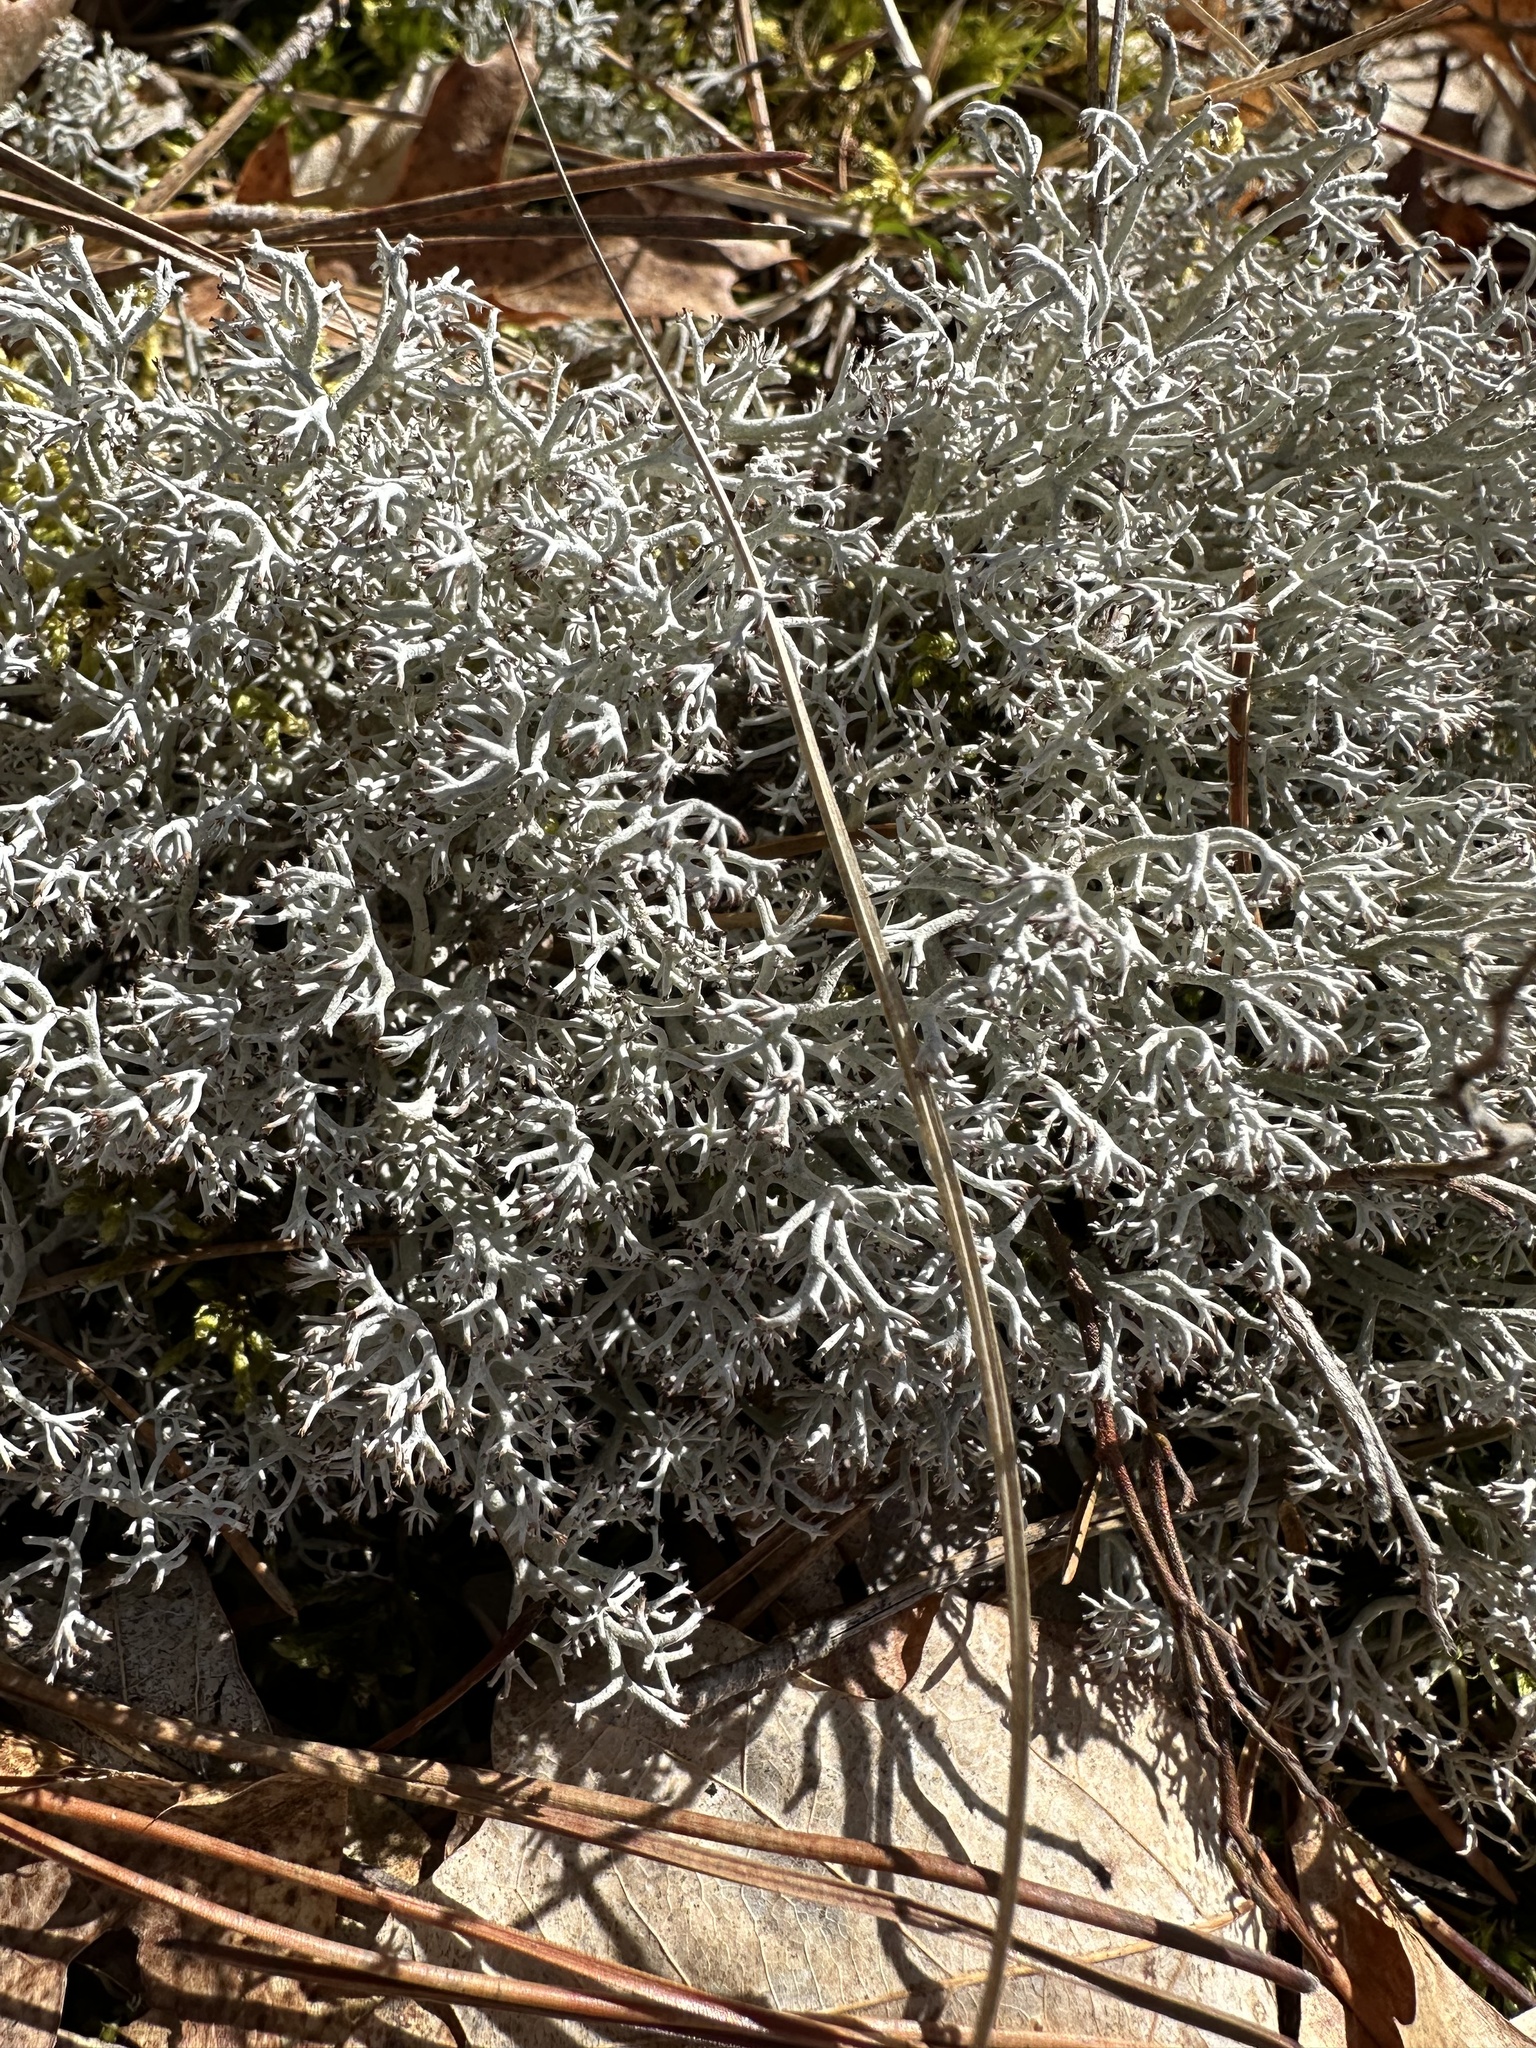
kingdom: Fungi
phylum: Ascomycota
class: Lecanoromycetes
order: Lecanorales
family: Cladoniaceae
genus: Cladonia
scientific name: Cladonia rangiferina
